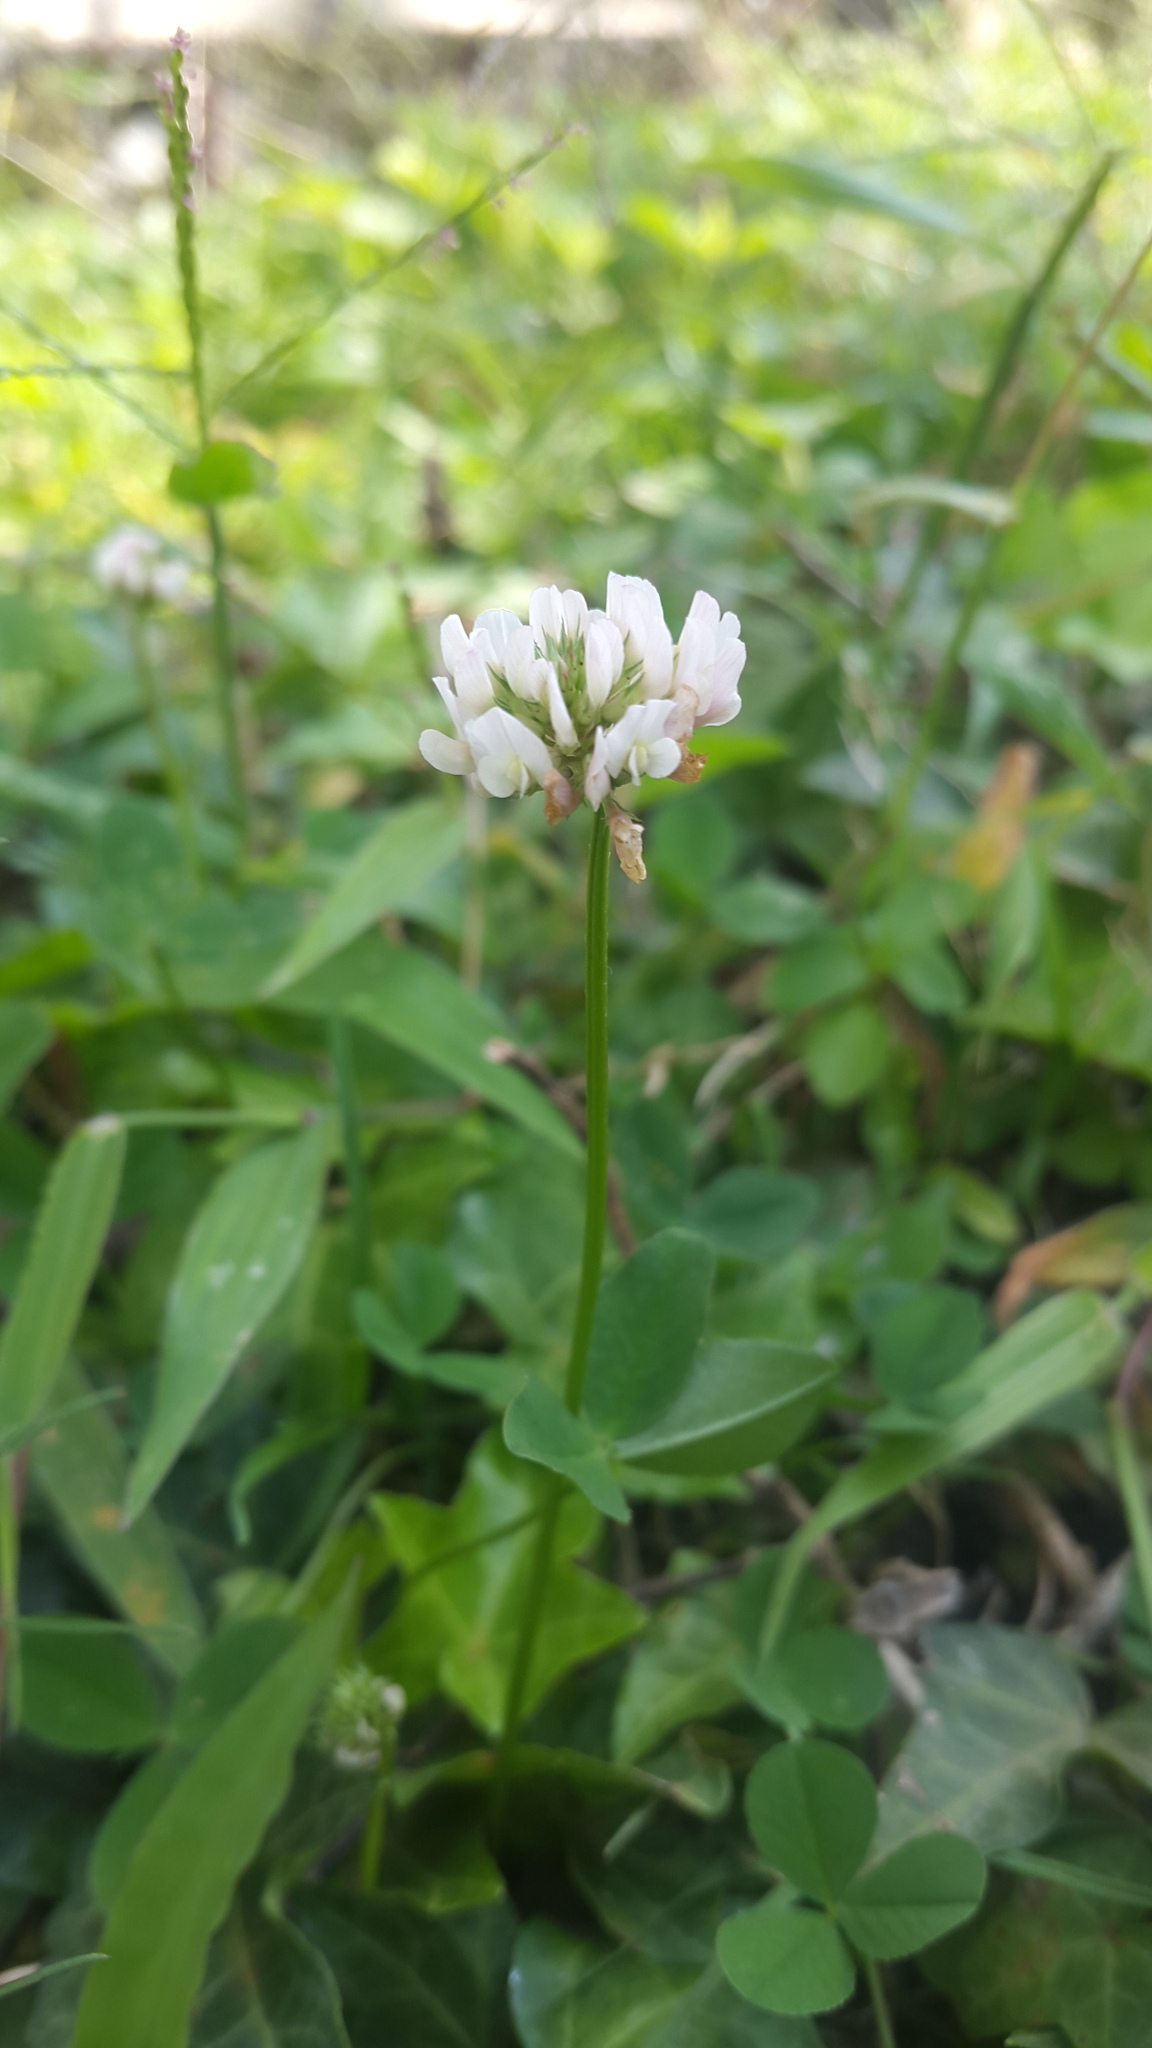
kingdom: Plantae
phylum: Tracheophyta
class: Magnoliopsida
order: Fabales
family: Fabaceae
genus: Trifolium
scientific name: Trifolium repens
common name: White clover
